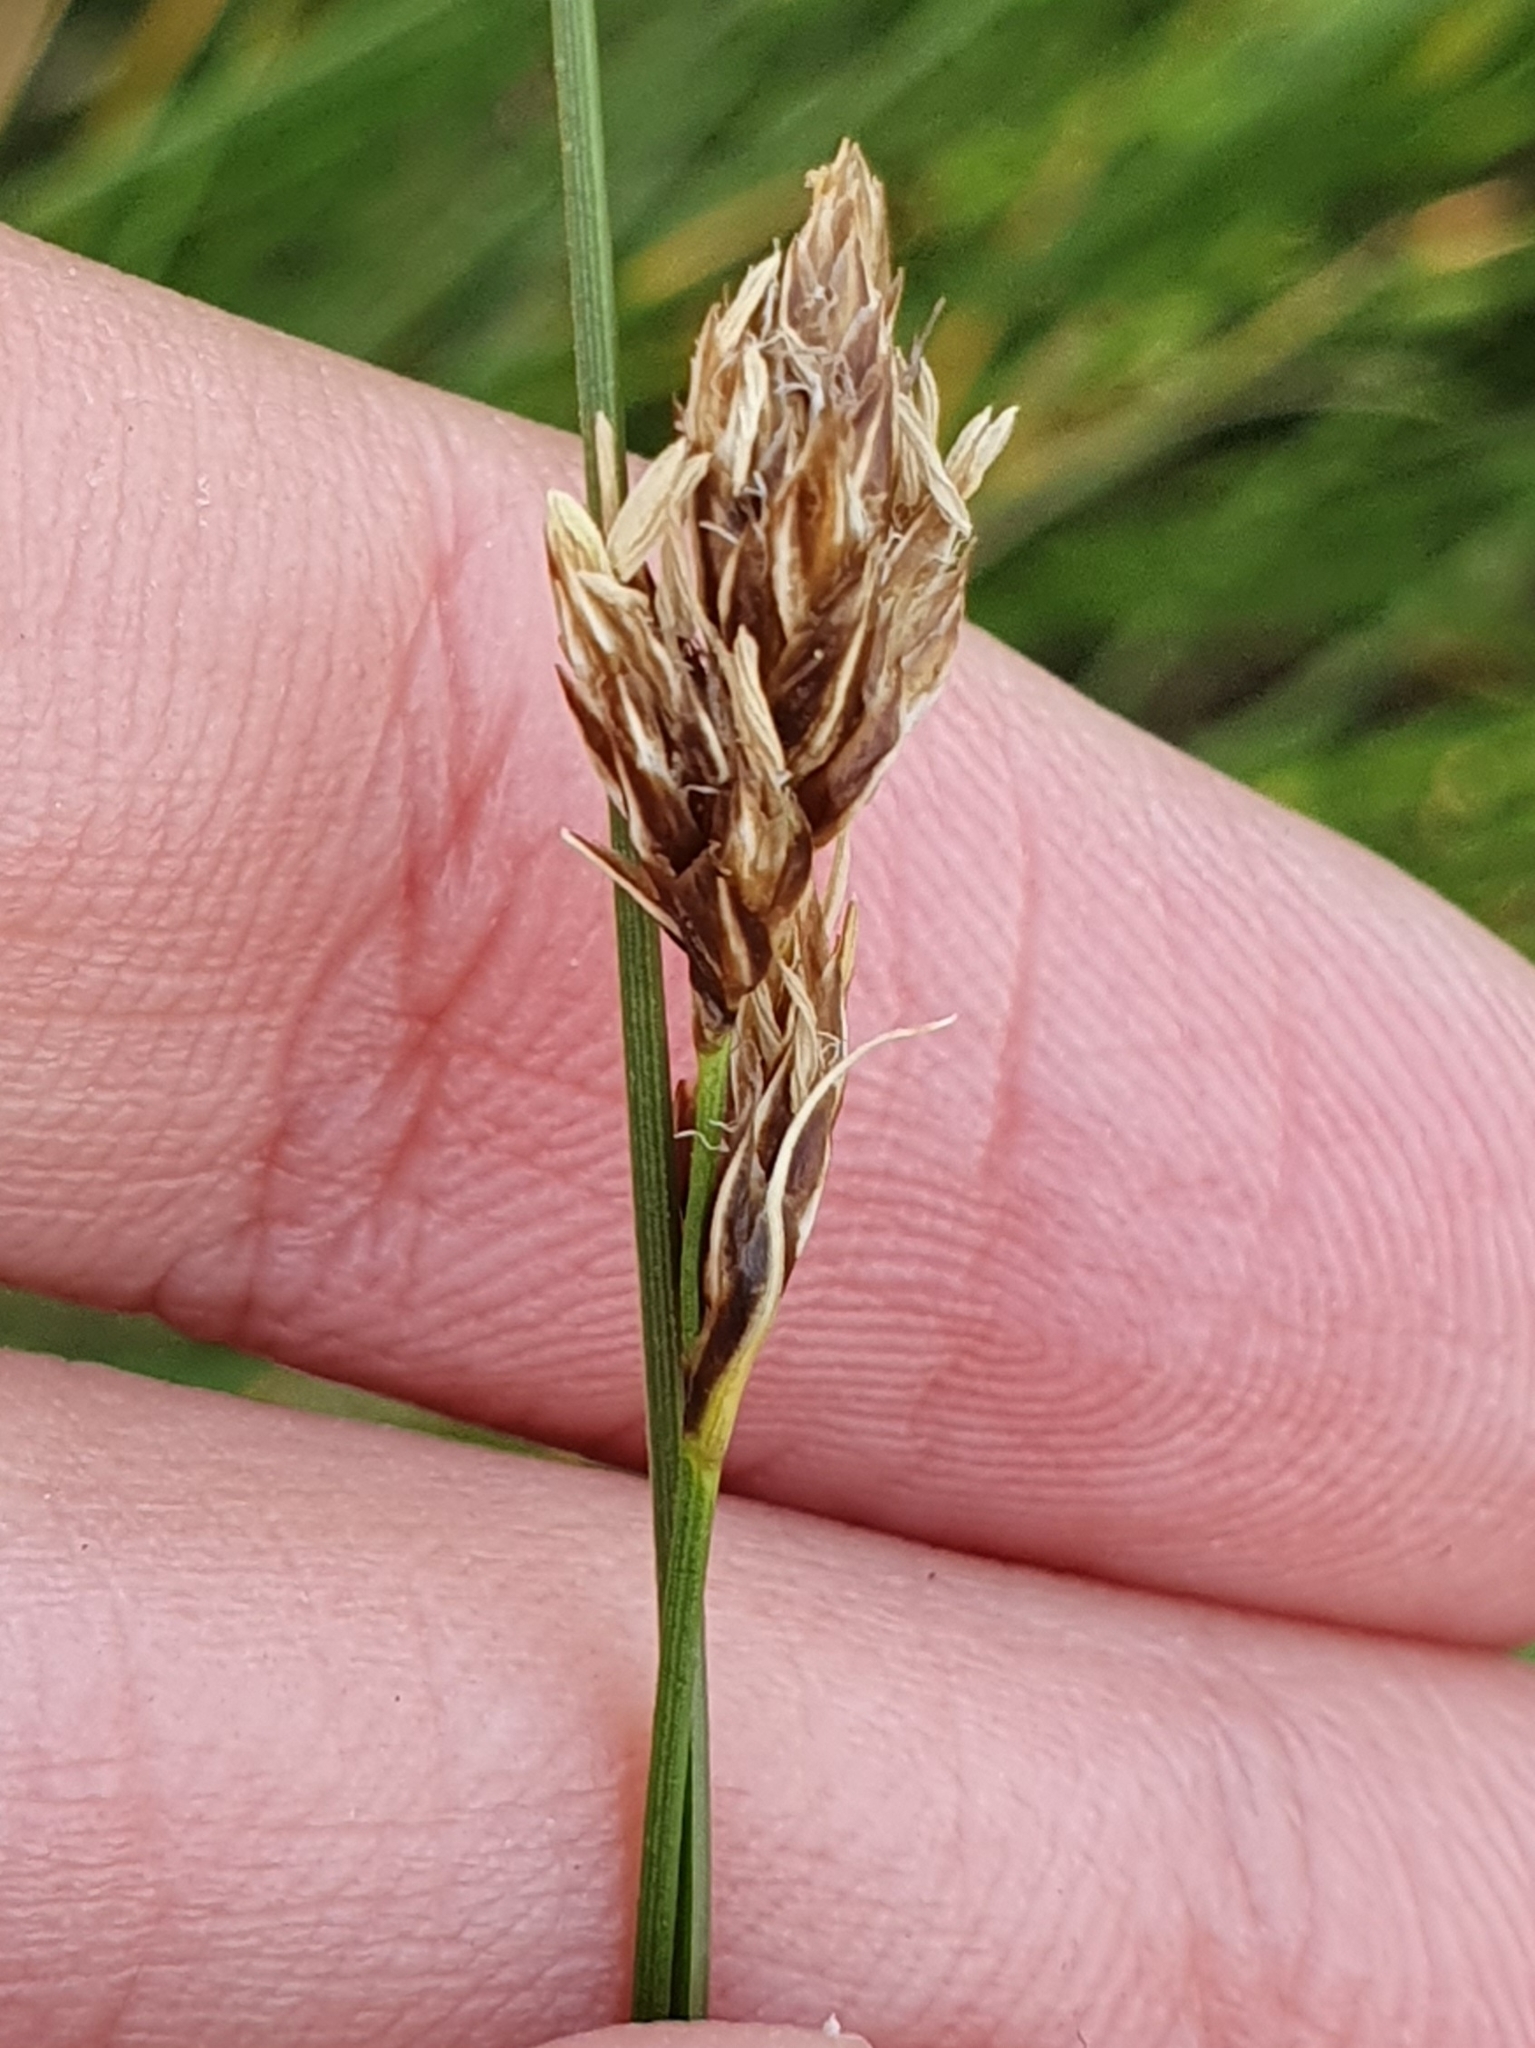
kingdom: Plantae
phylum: Tracheophyta
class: Liliopsida
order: Poales
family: Cyperaceae
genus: Carex
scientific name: Carex divisa
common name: Divided sedge
